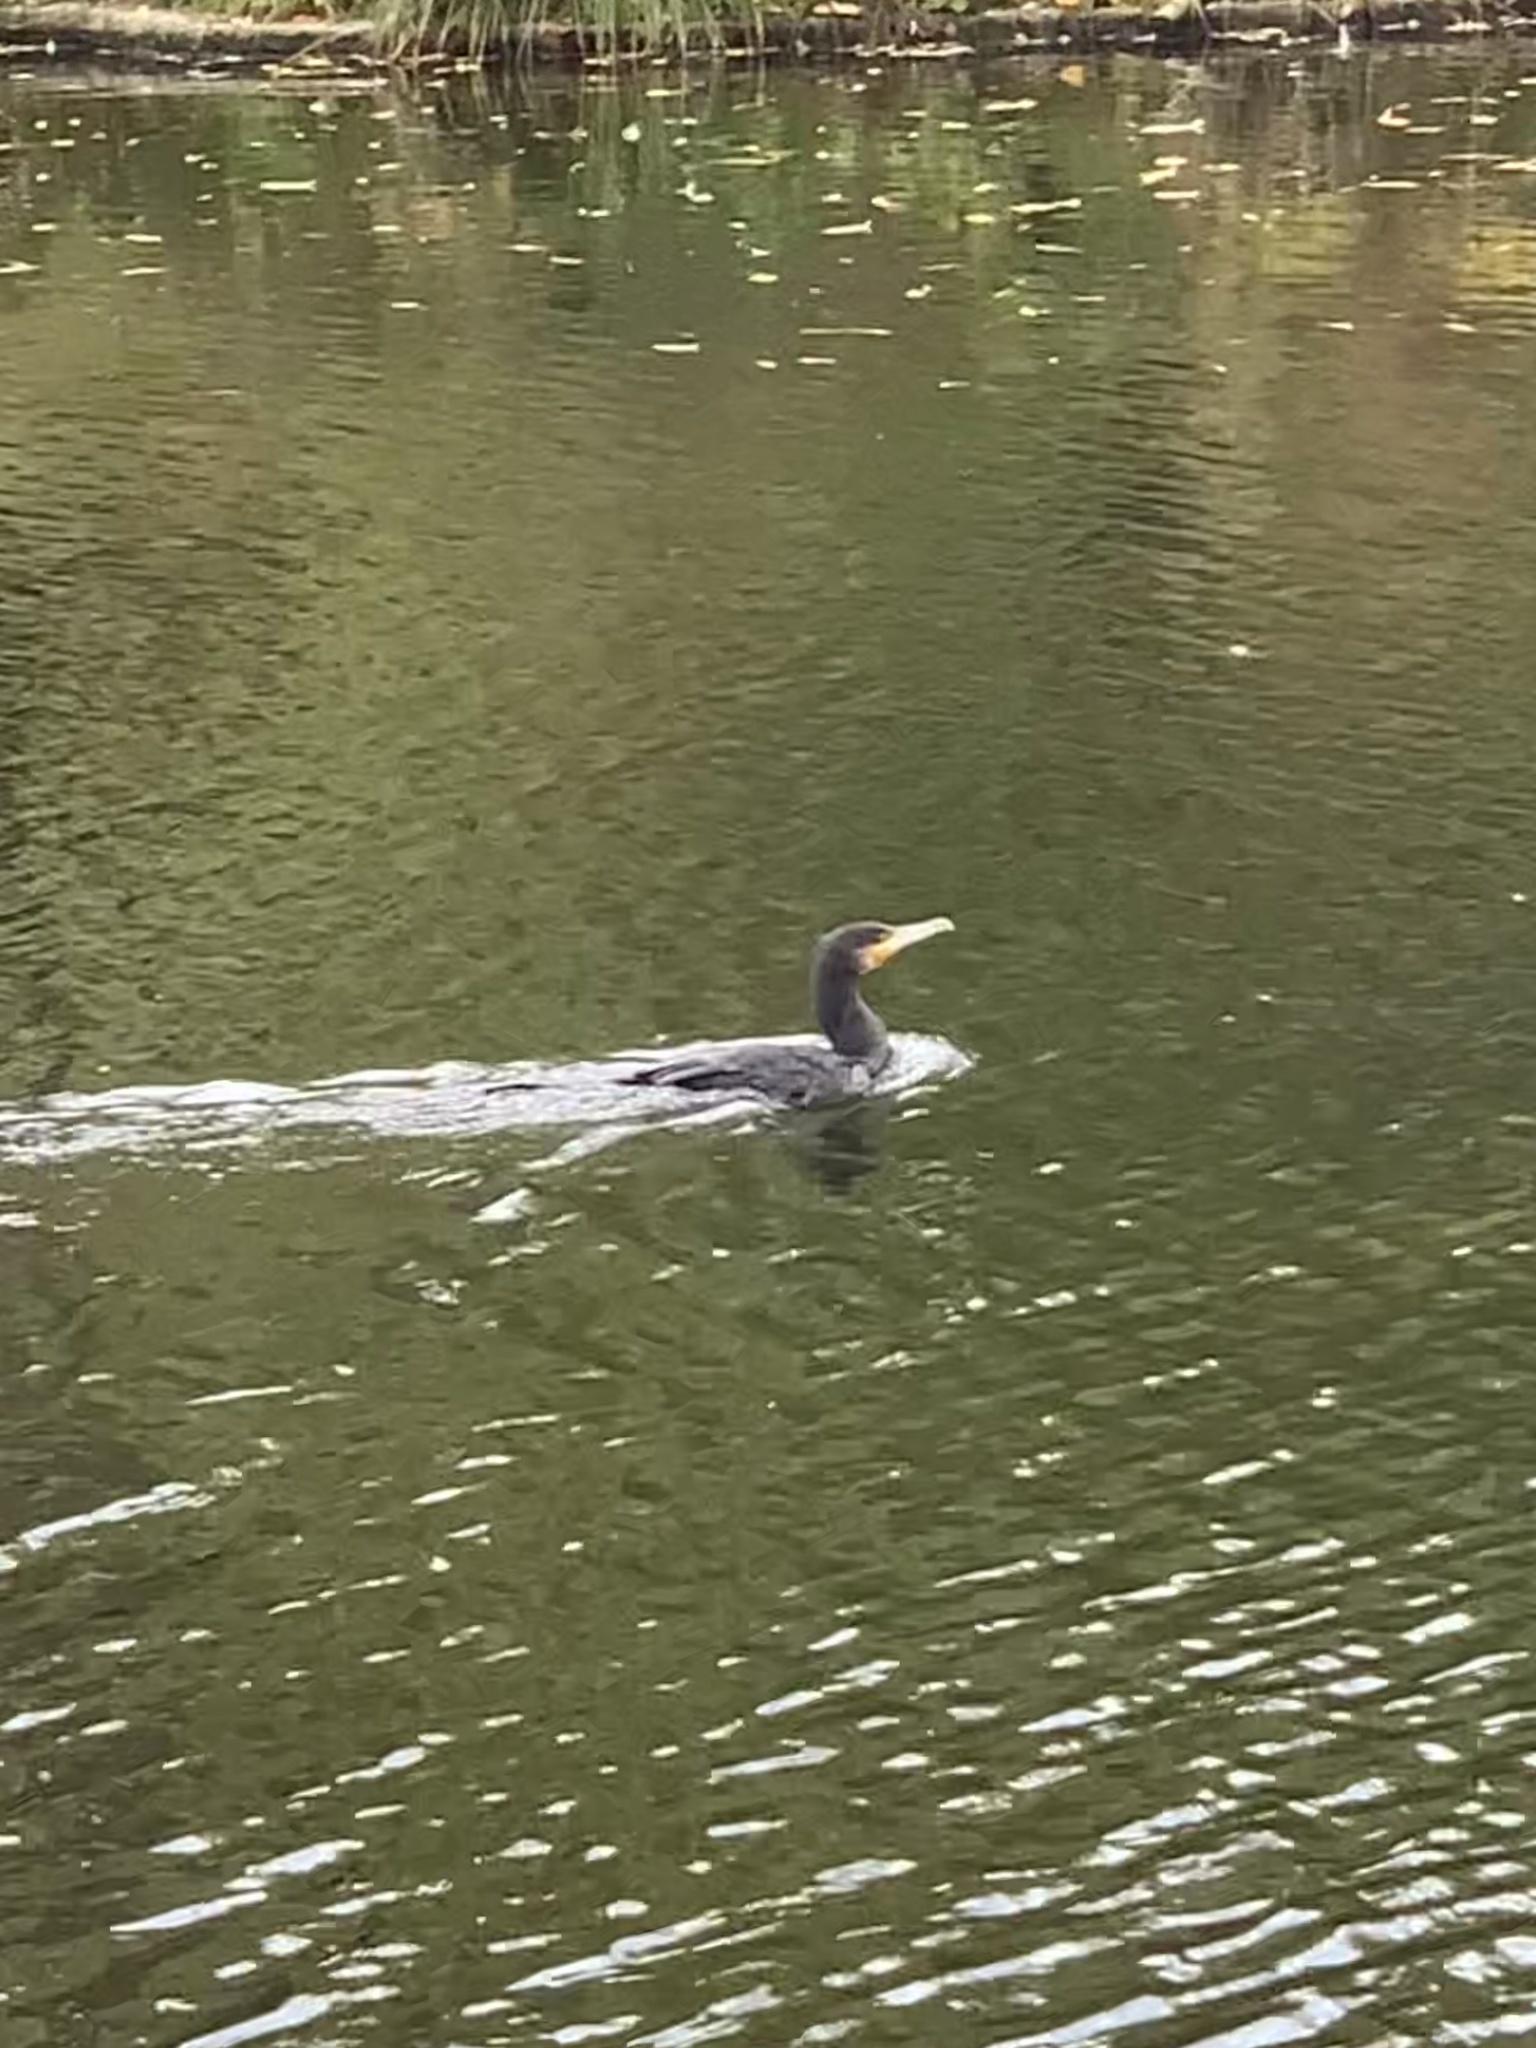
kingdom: Animalia
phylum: Chordata
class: Aves
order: Suliformes
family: Phalacrocoracidae
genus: Phalacrocorax
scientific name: Phalacrocorax carbo
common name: Great cormorant
